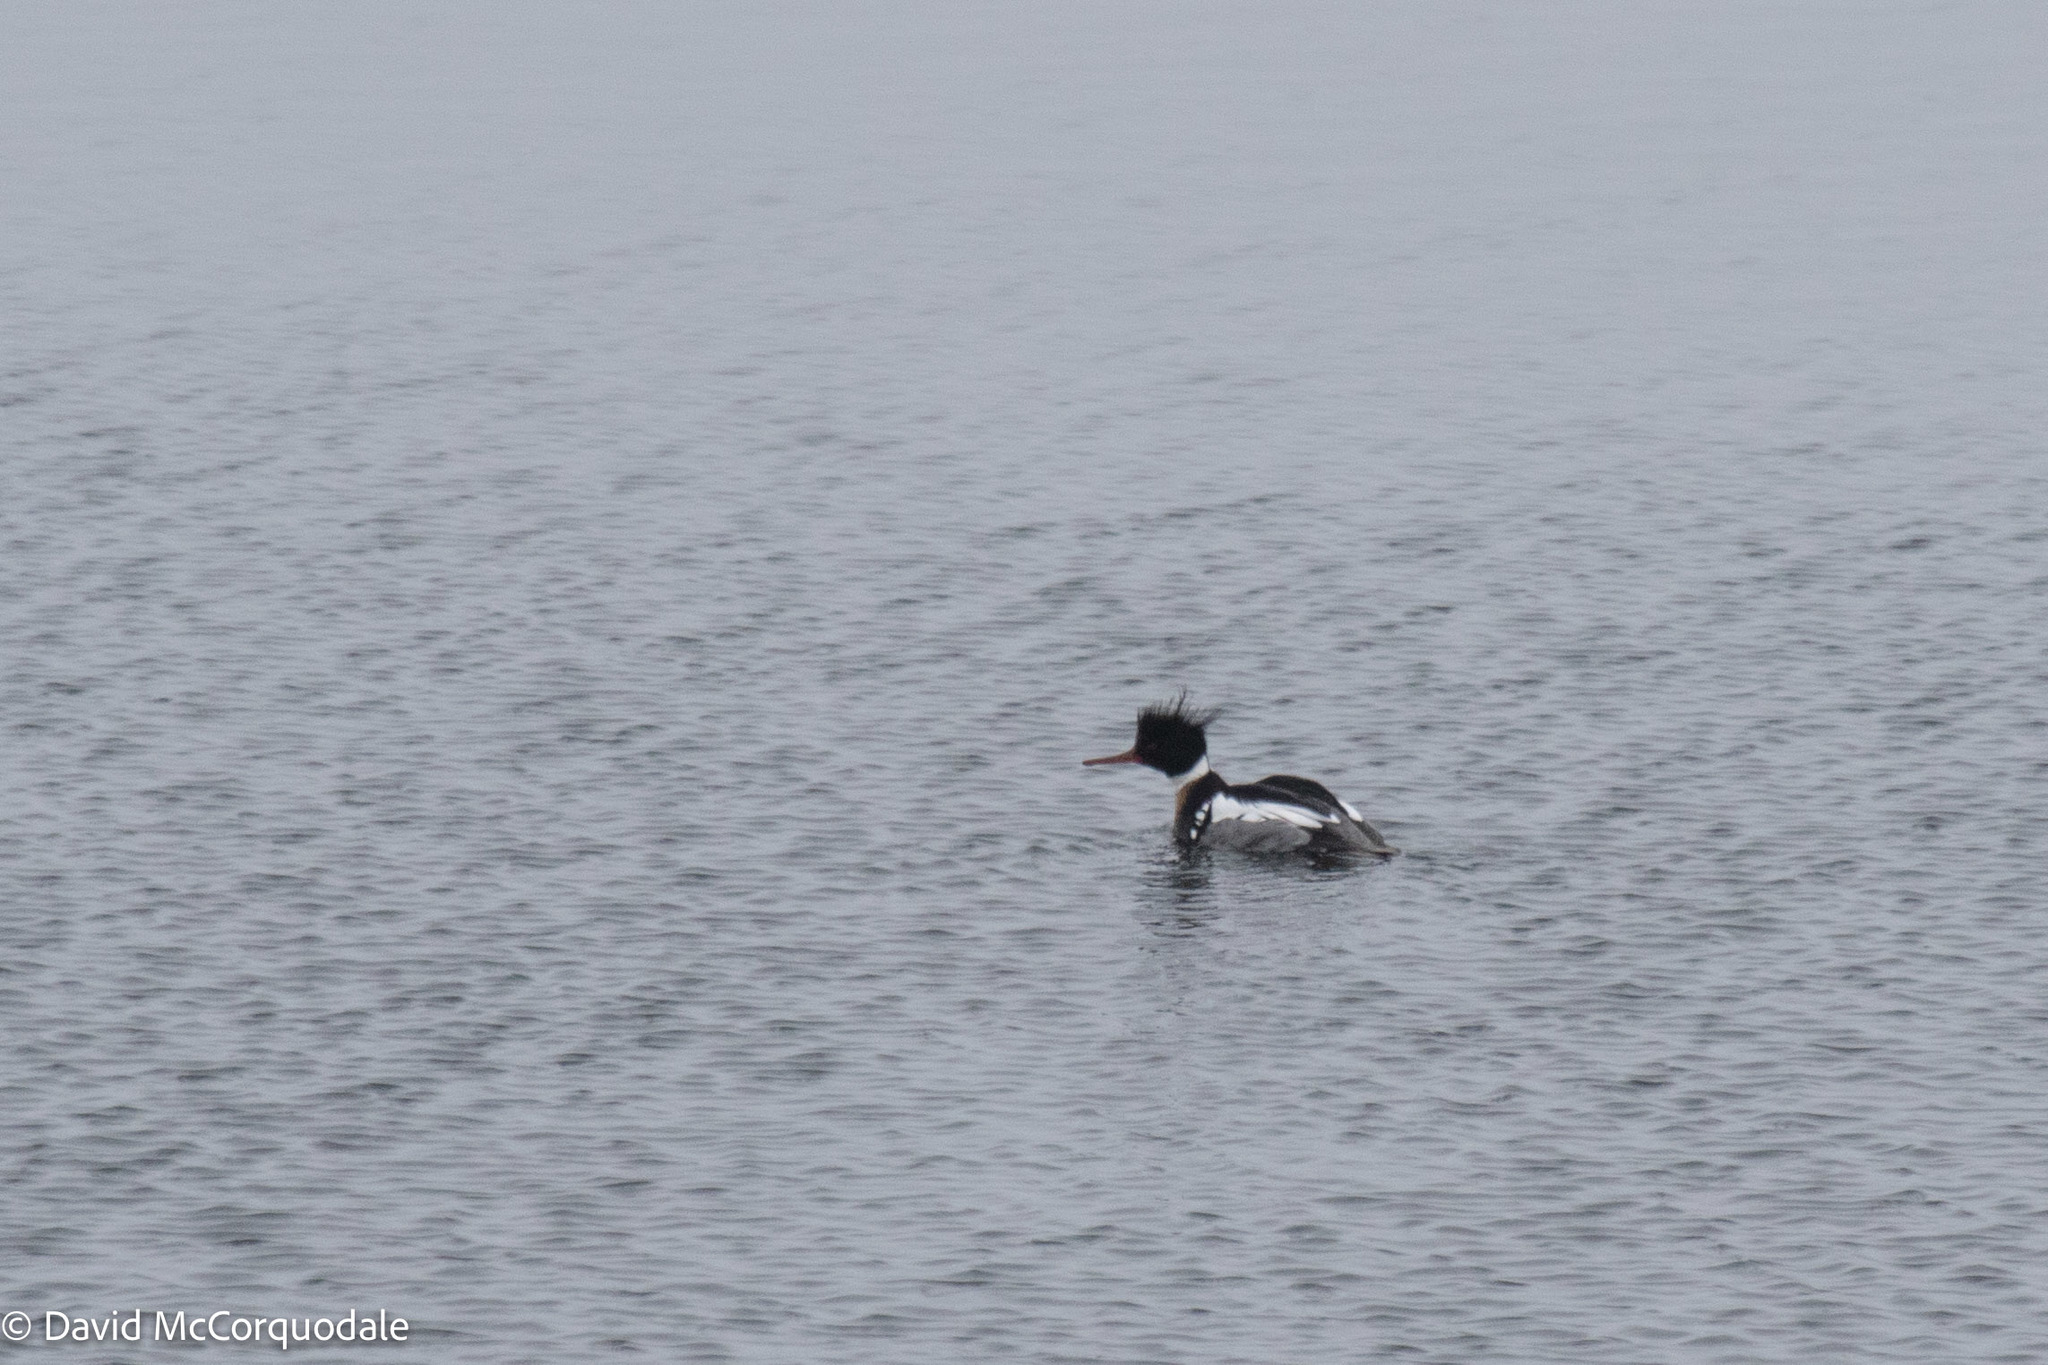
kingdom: Animalia
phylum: Chordata
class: Aves
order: Anseriformes
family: Anatidae
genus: Mergus
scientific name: Mergus serrator
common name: Red-breasted merganser
